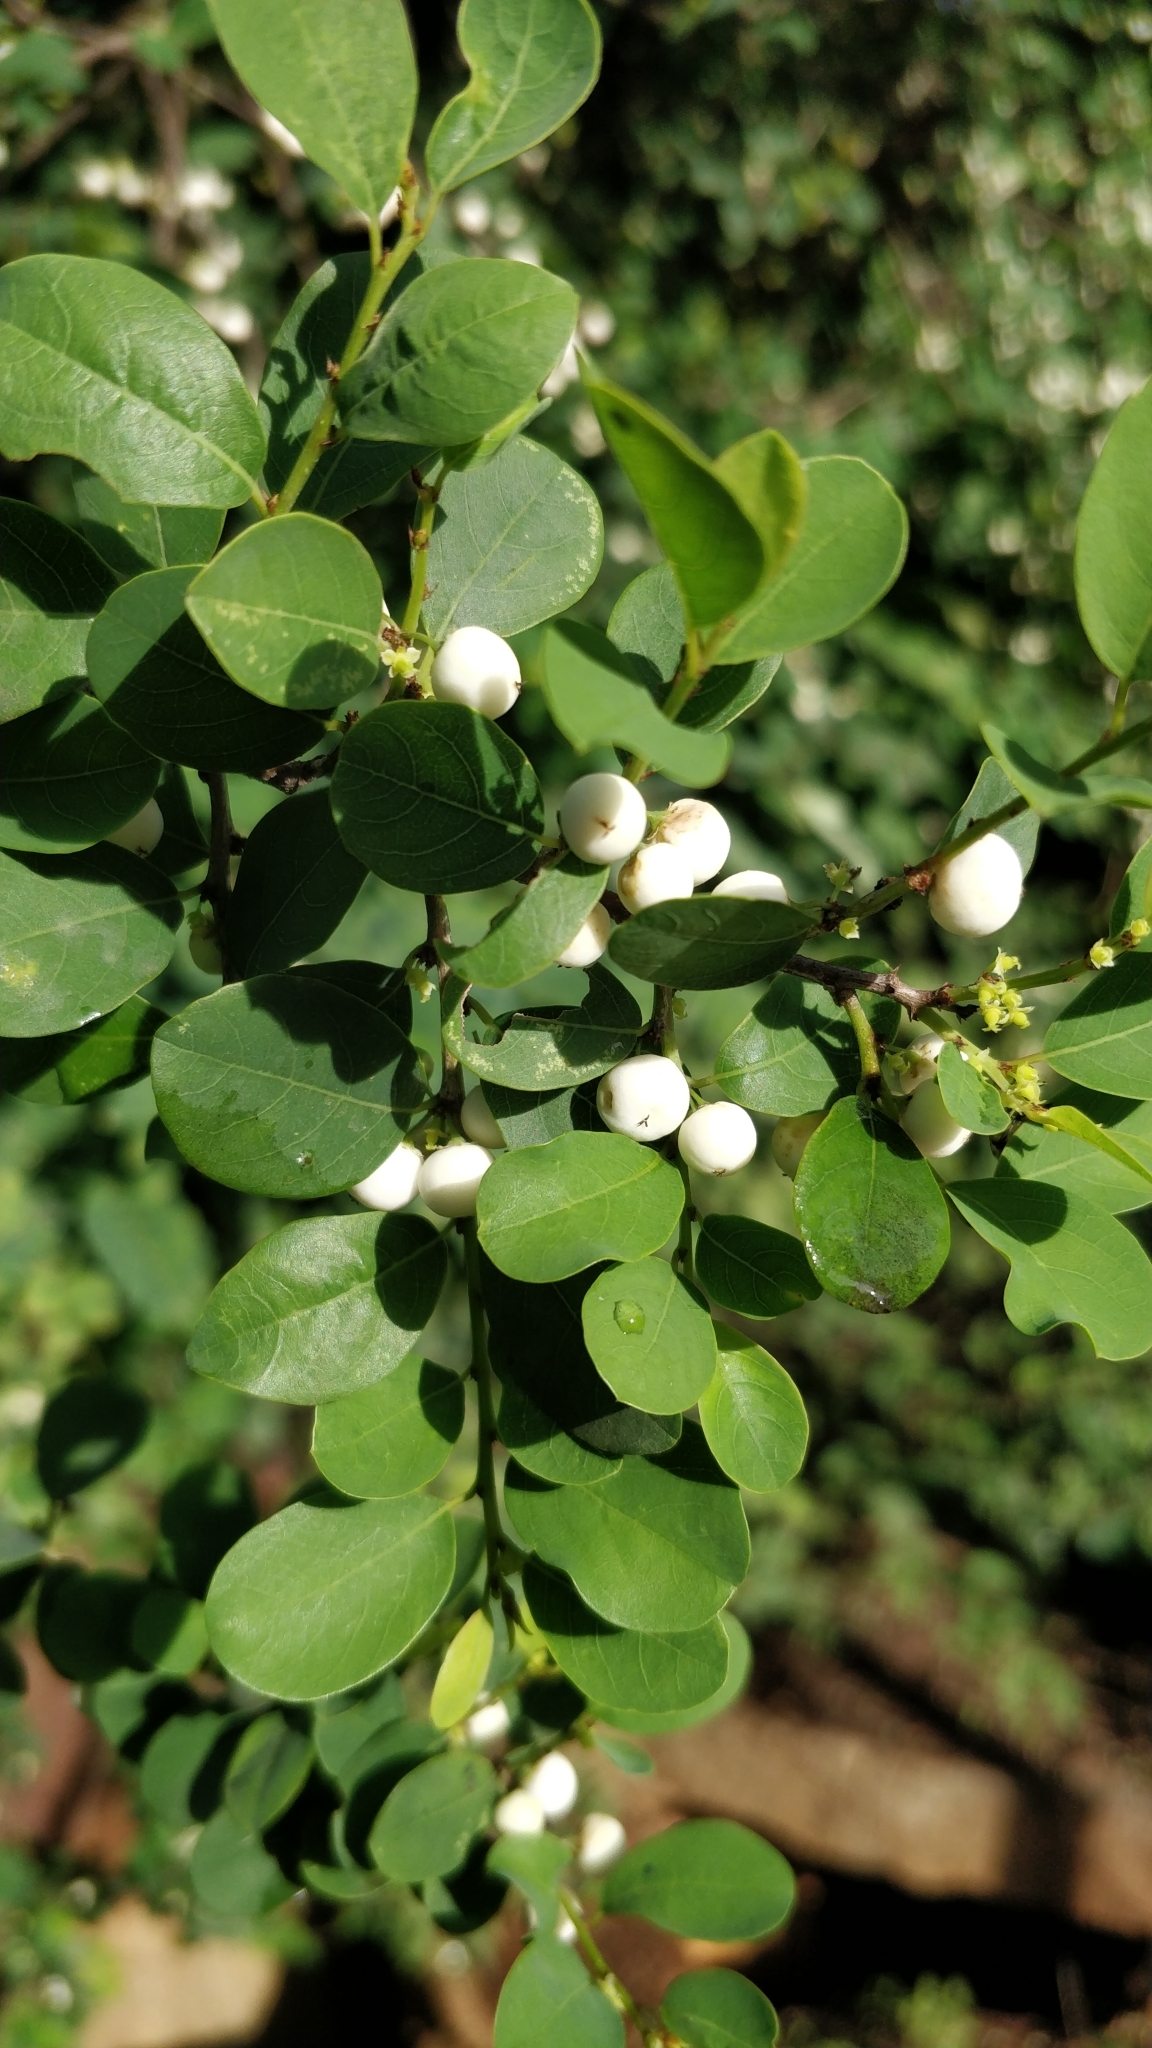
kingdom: Plantae
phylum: Tracheophyta
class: Magnoliopsida
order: Malpighiales
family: Phyllanthaceae
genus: Flueggea
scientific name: Flueggea virosa
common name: Common bushweed
